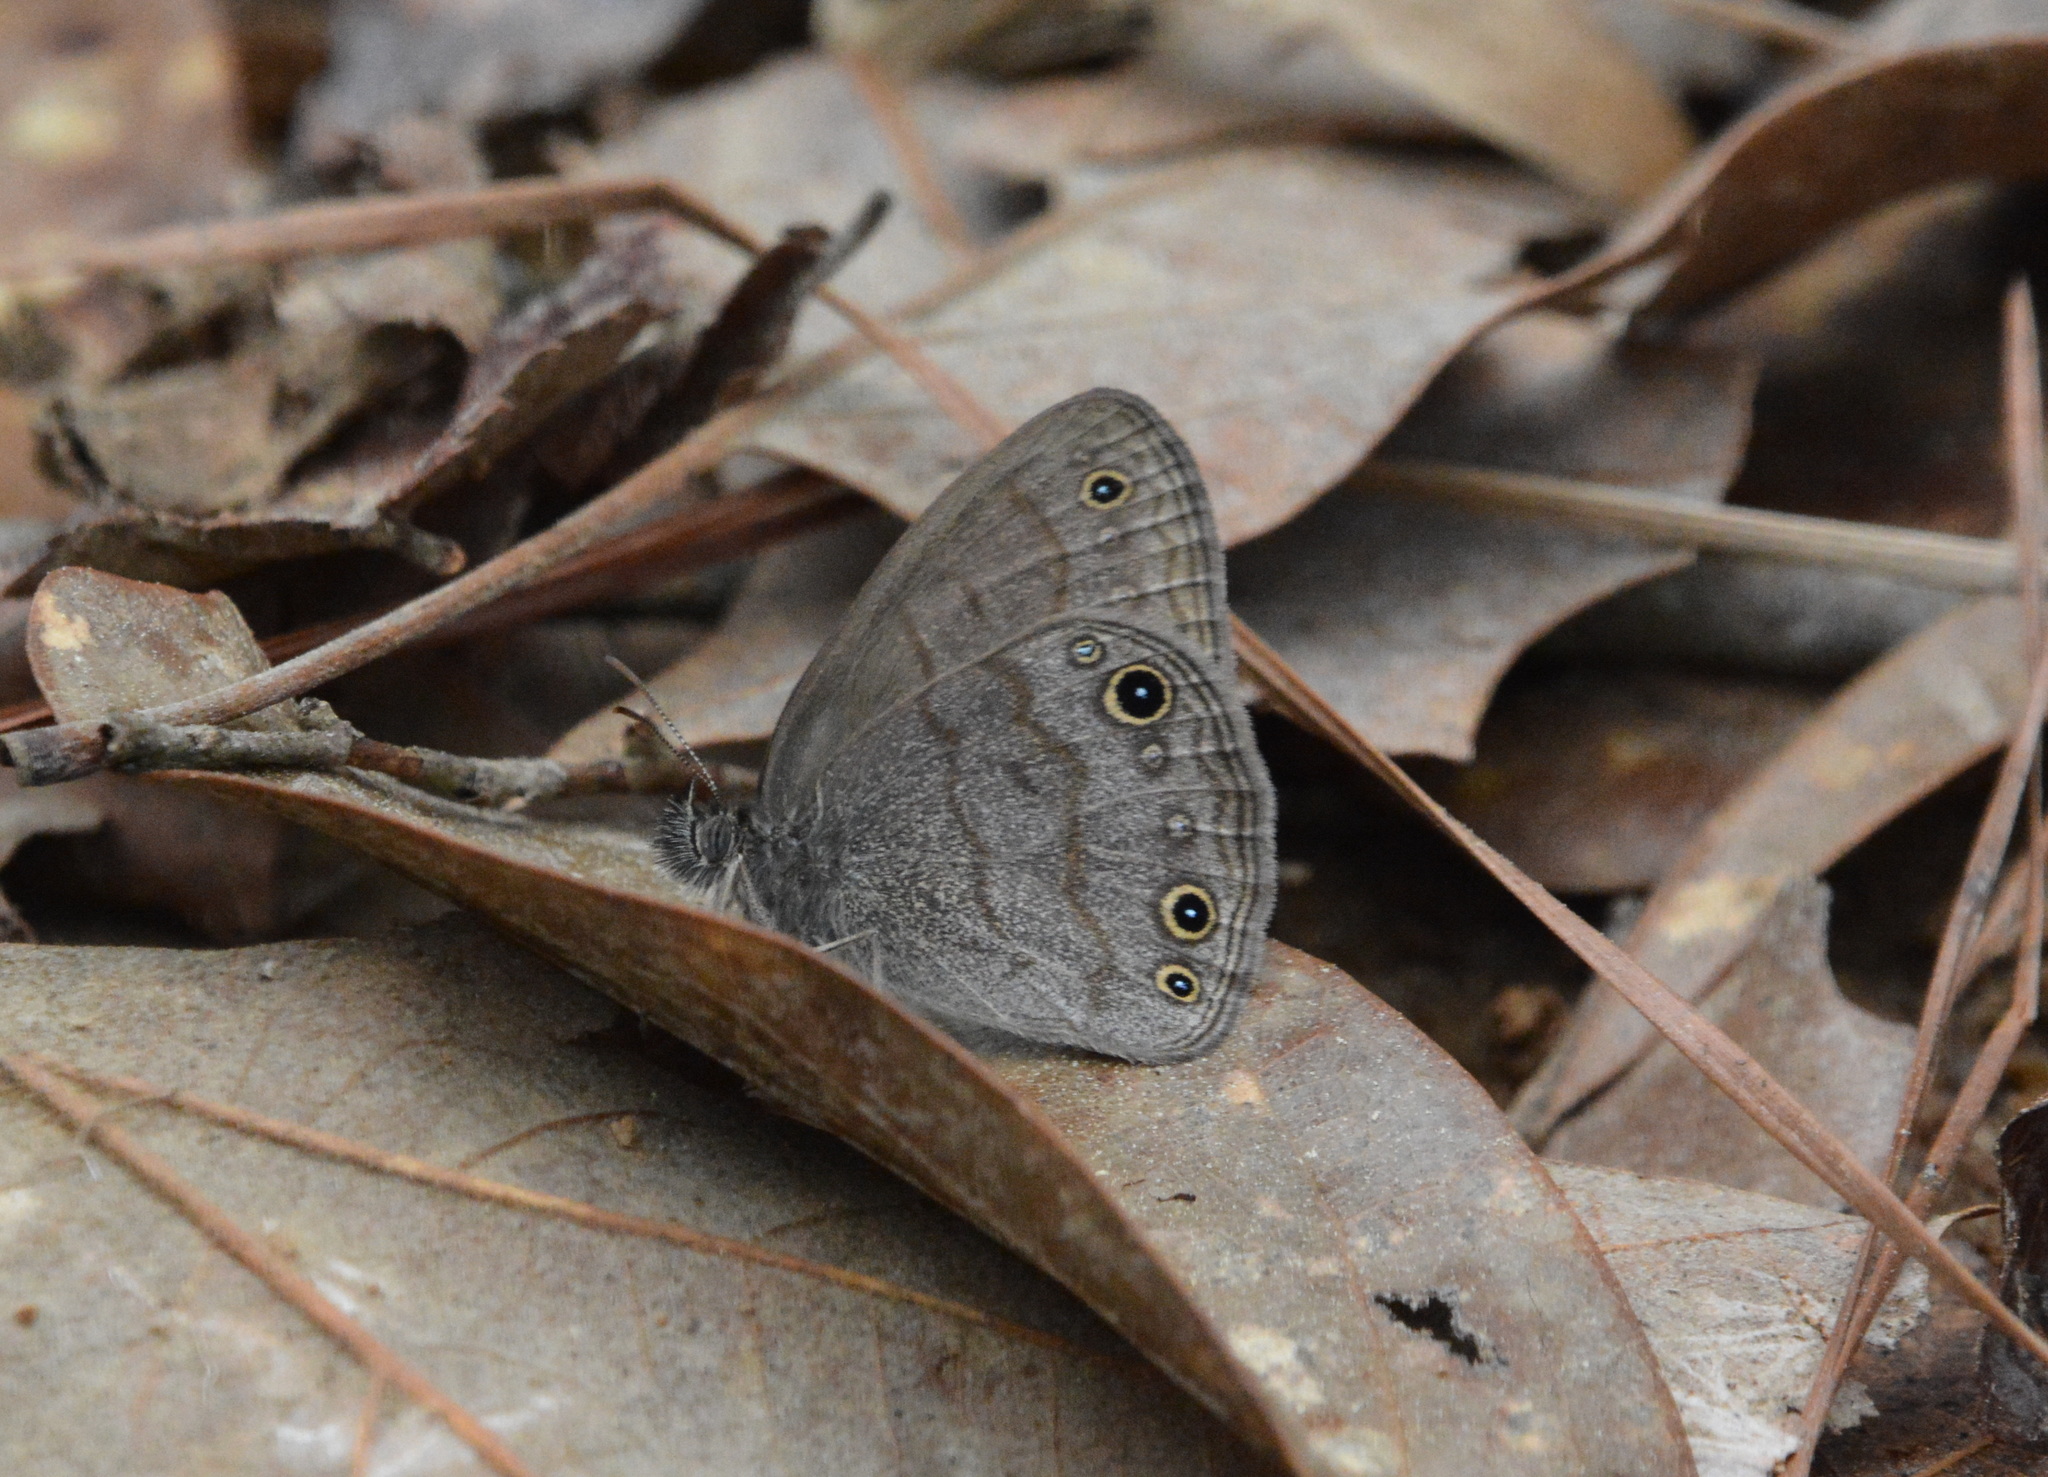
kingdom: Animalia
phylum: Arthropoda
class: Insecta
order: Lepidoptera
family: Nymphalidae
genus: Hermeuptychia
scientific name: Hermeuptychia hermes
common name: Hermes satyr
